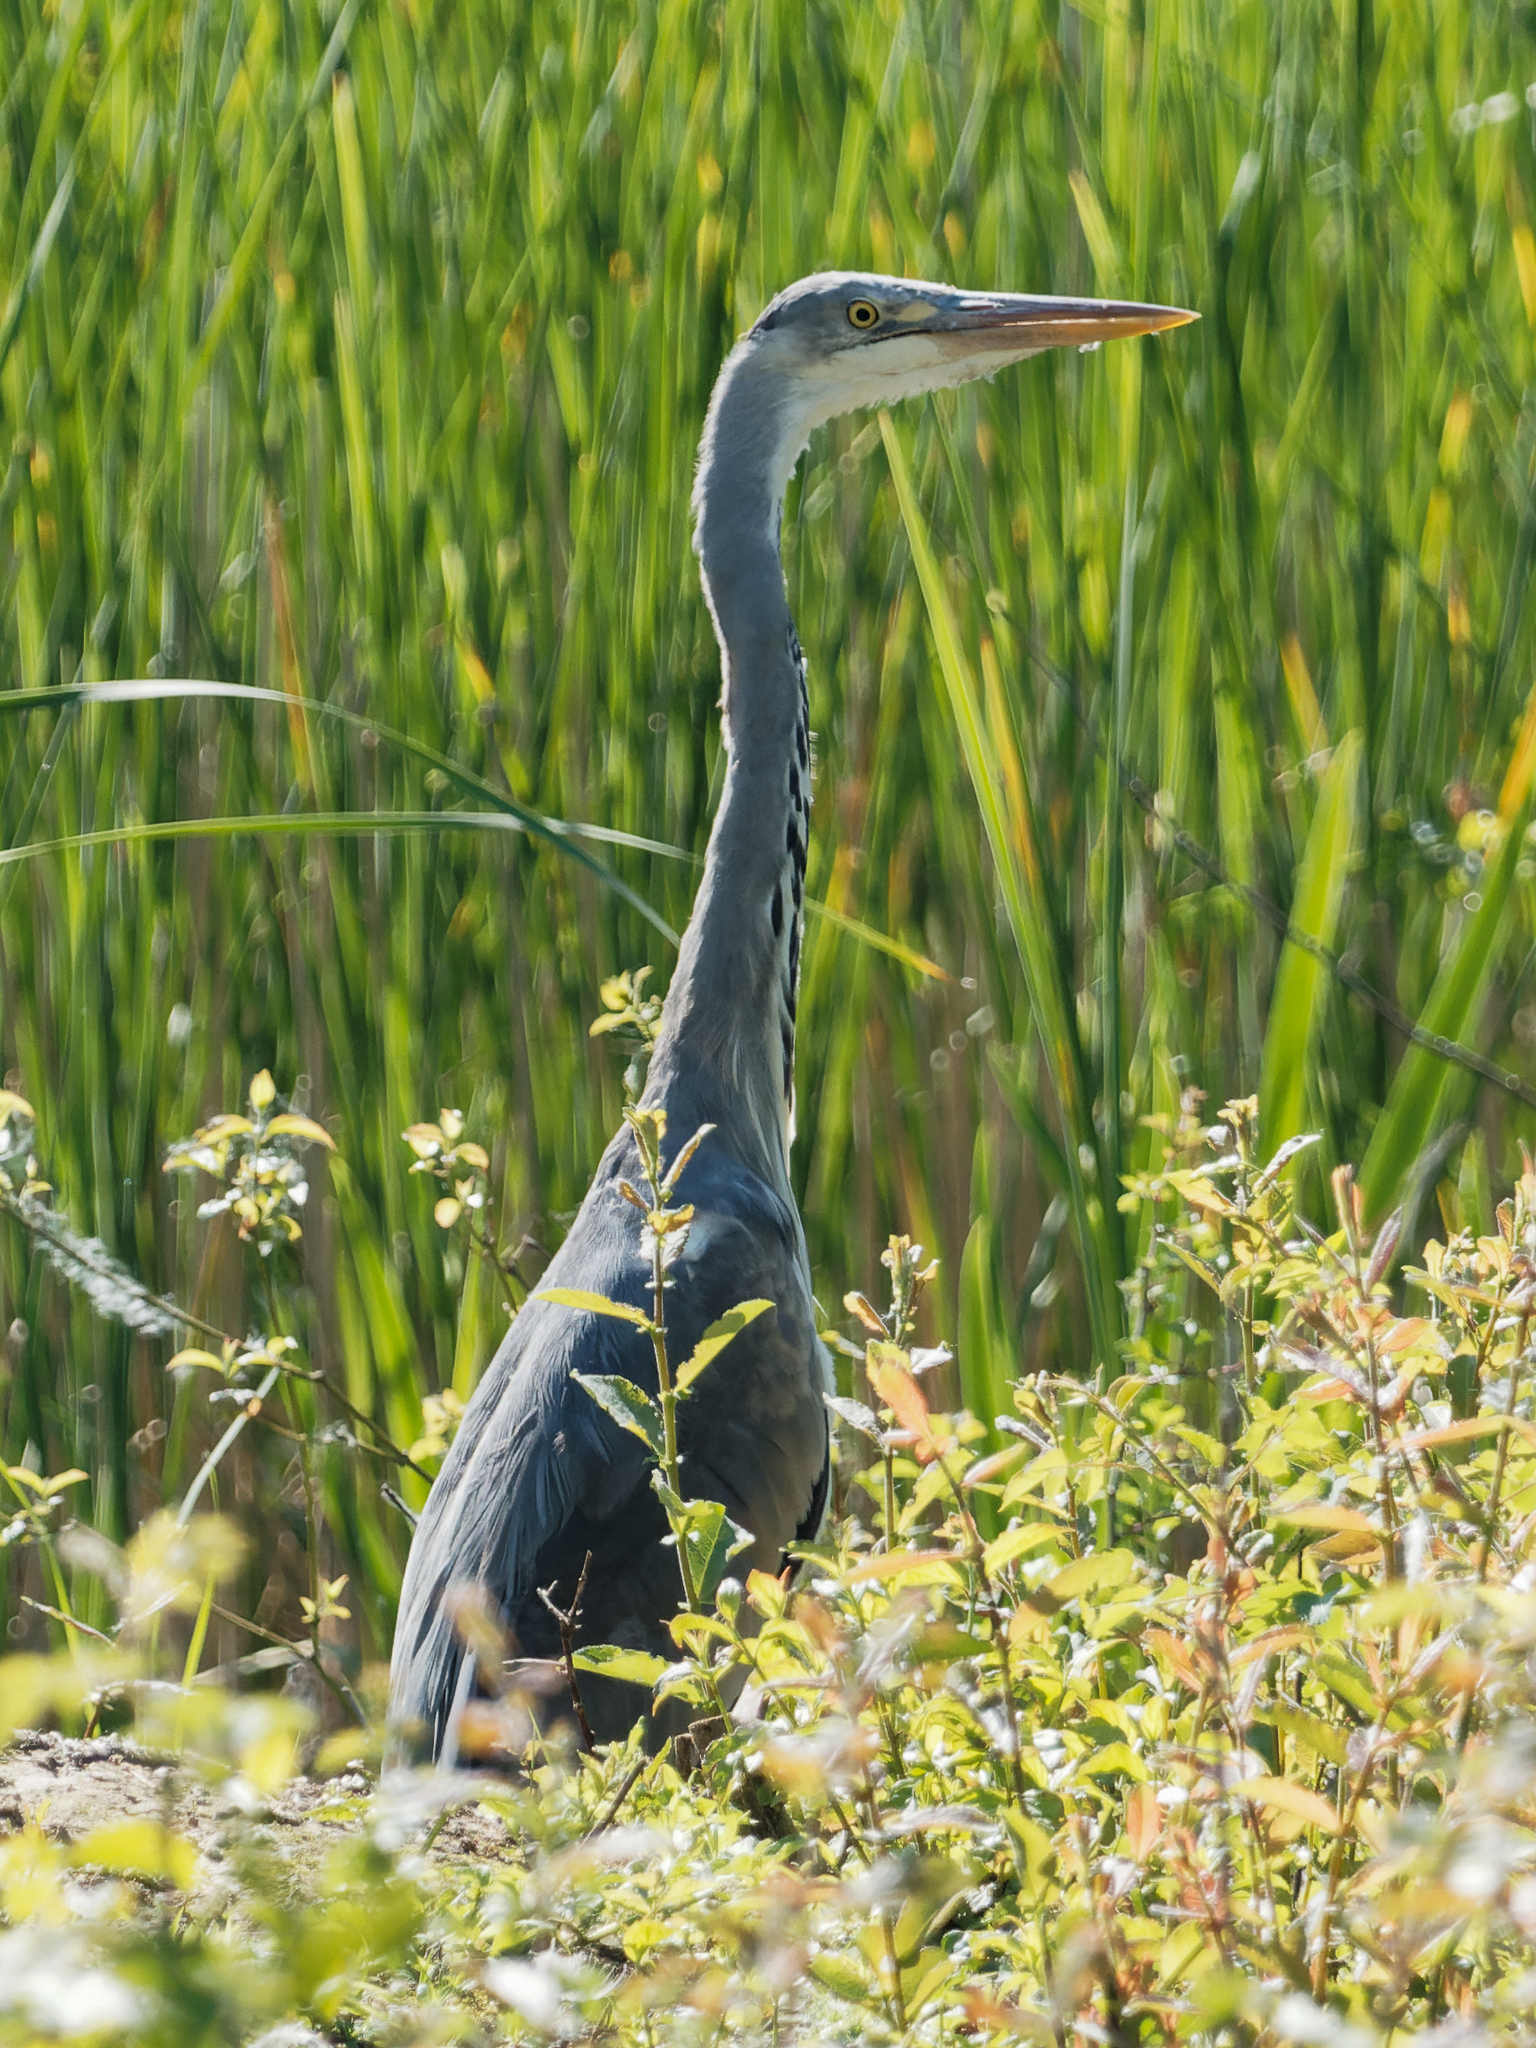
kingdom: Animalia
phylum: Chordata
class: Aves
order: Pelecaniformes
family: Ardeidae
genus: Ardea
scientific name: Ardea cinerea
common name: Grey heron
